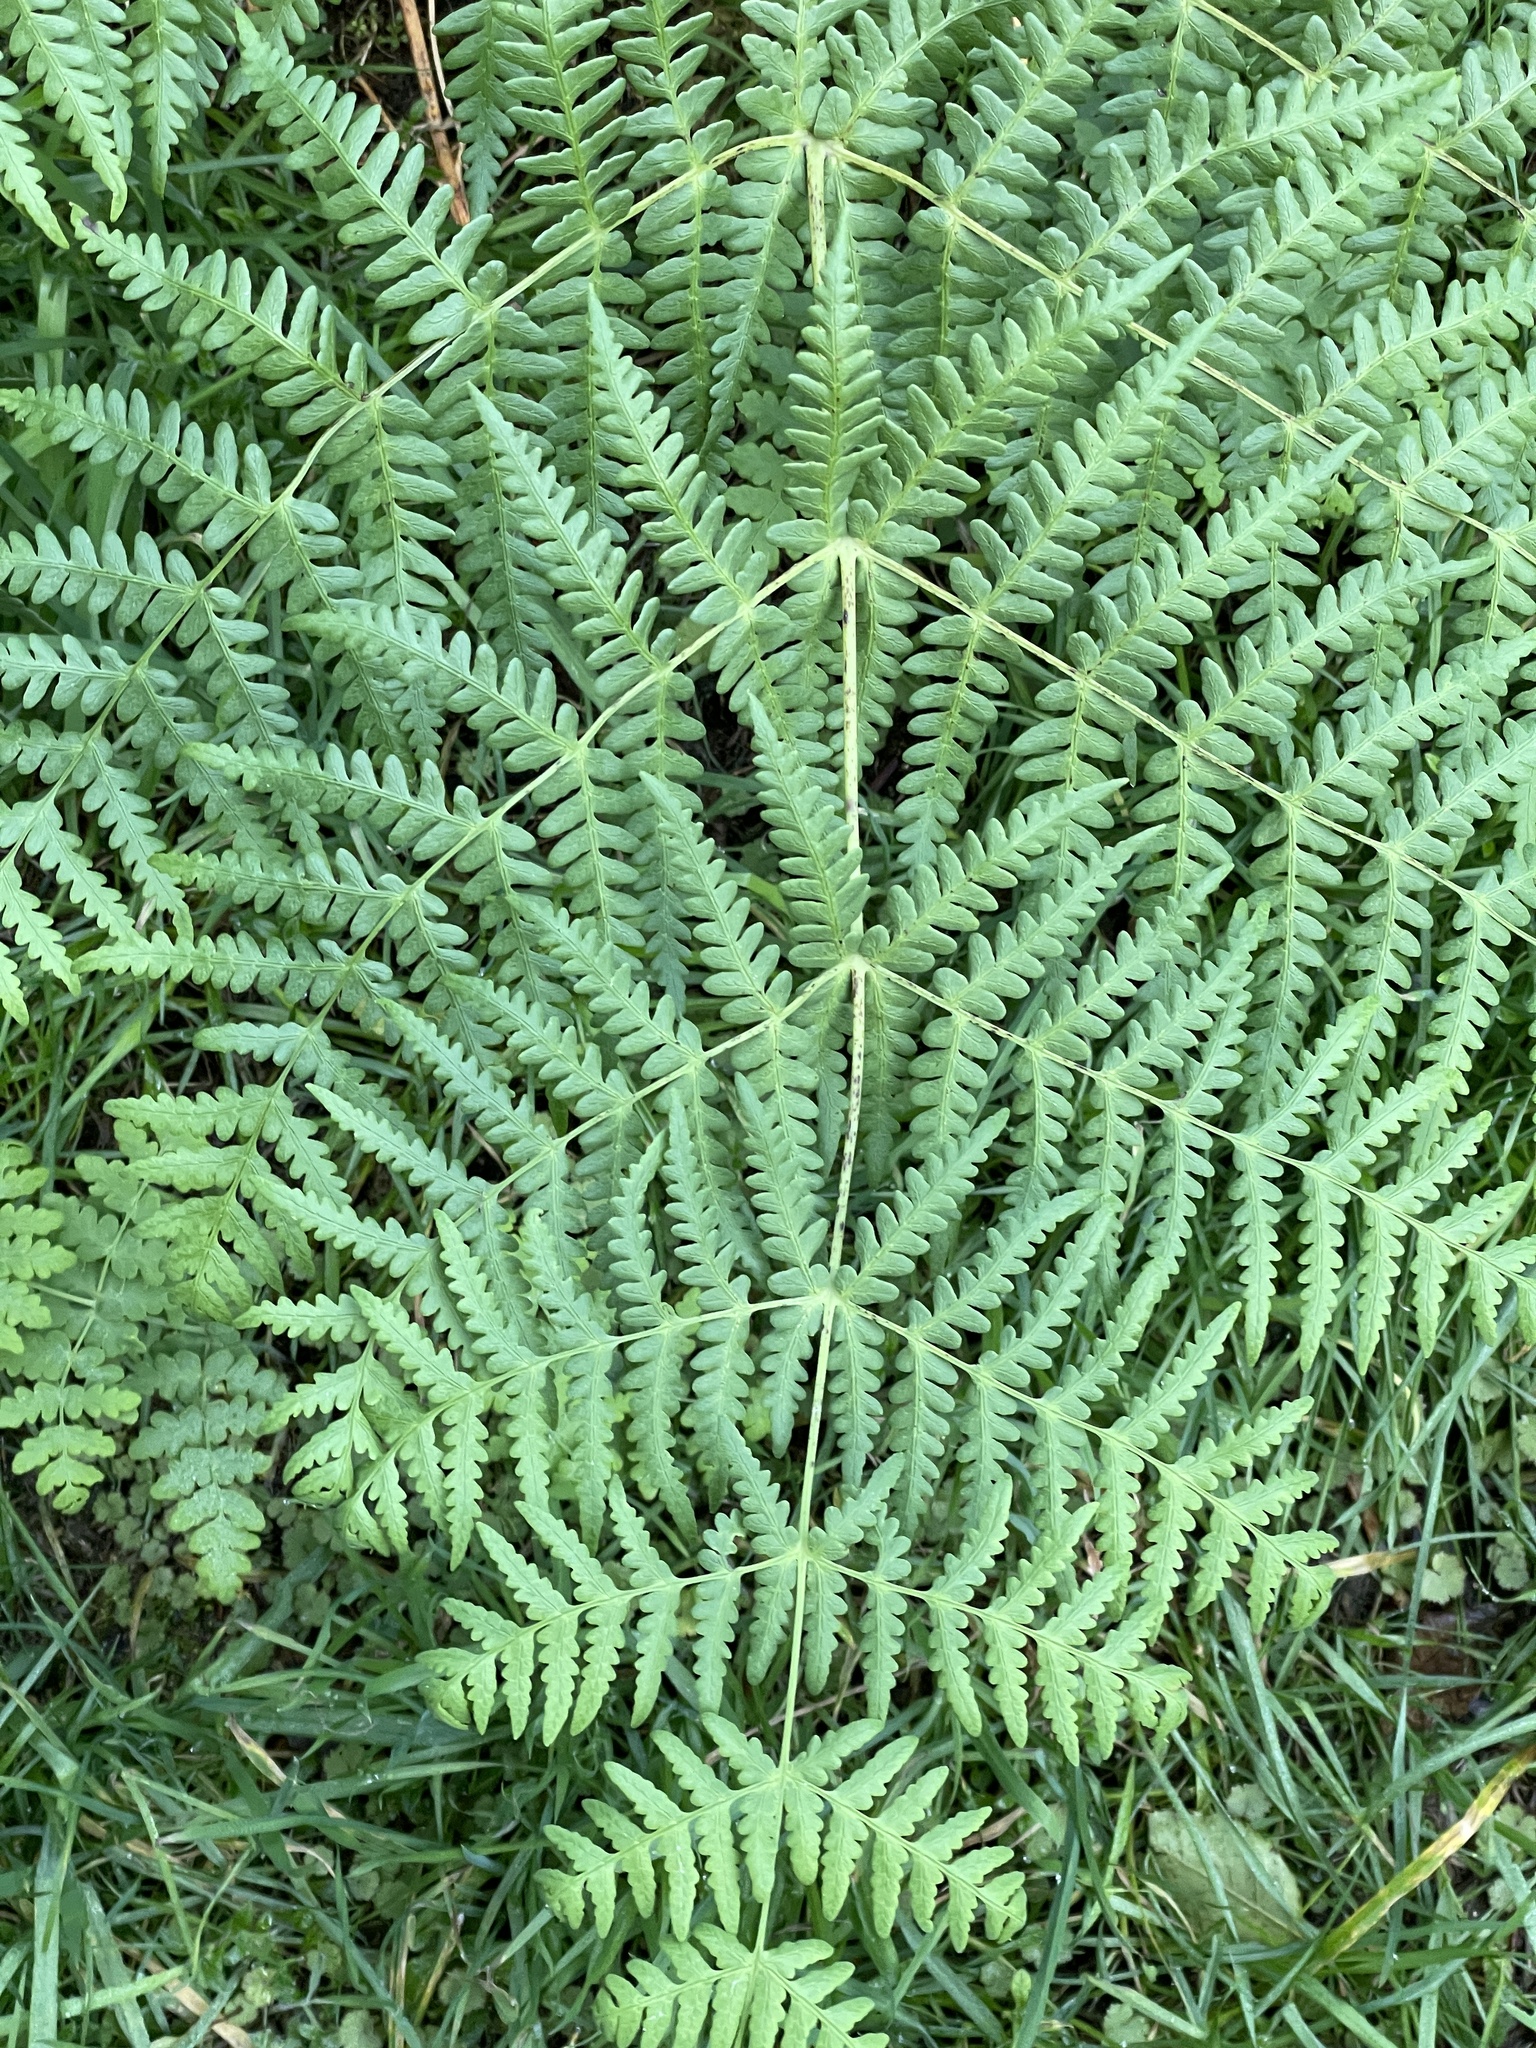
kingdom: Plantae
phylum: Tracheophyta
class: Polypodiopsida
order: Polypodiales
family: Dennstaedtiaceae
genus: Histiopteris
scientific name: Histiopteris incisa
